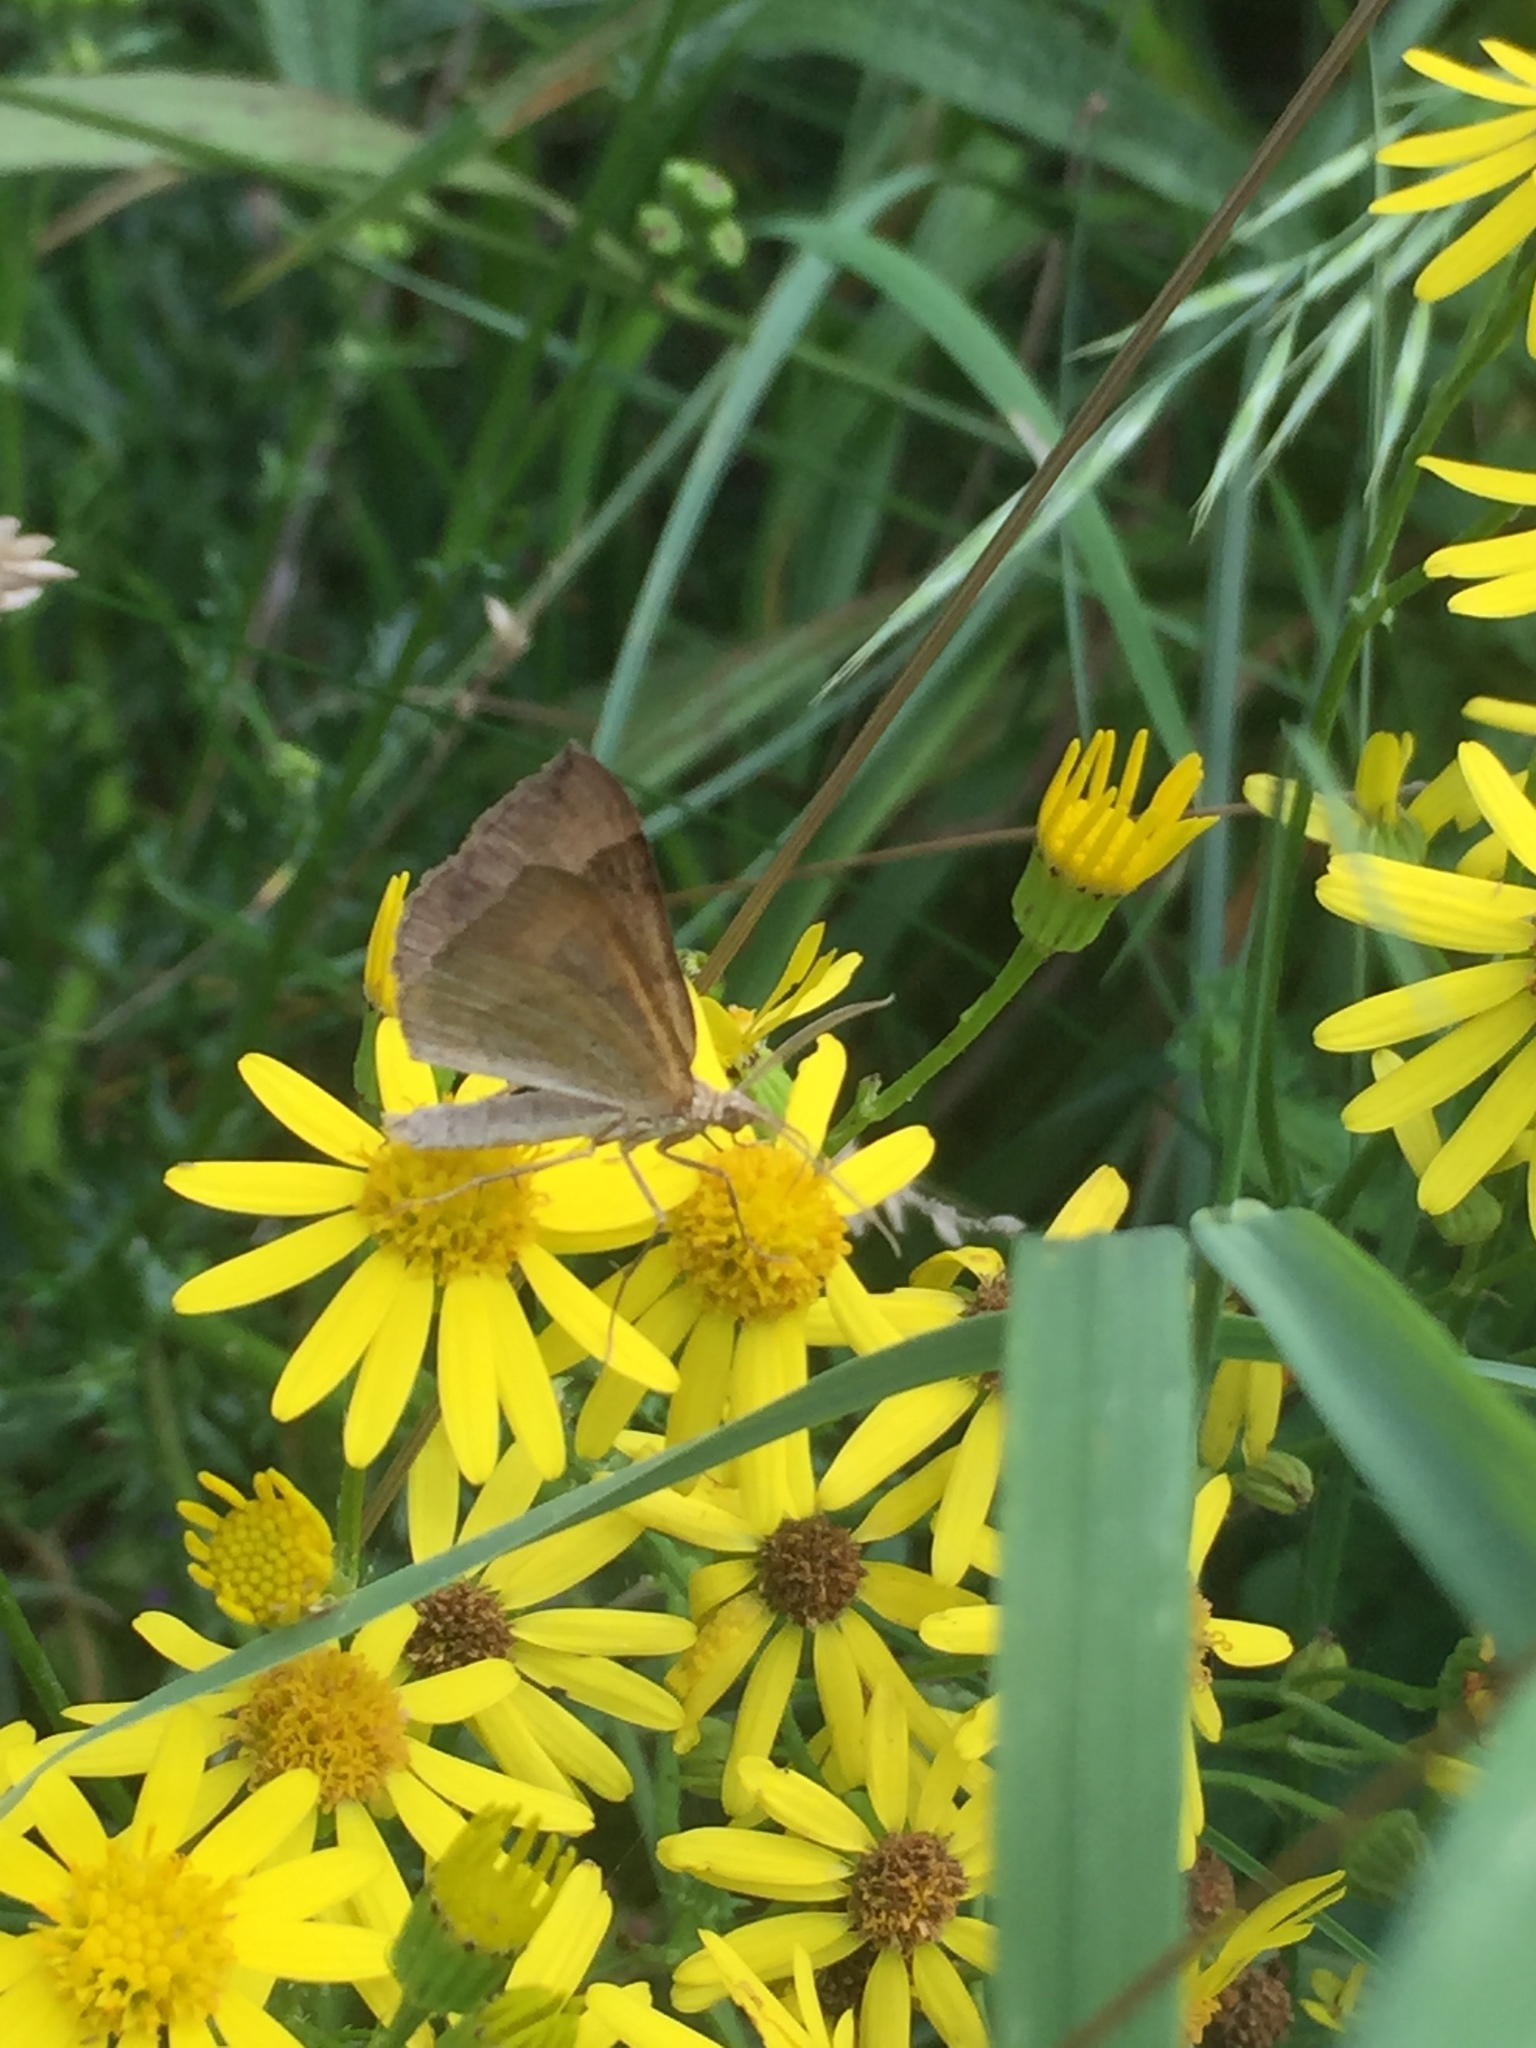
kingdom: Animalia
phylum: Arthropoda
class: Insecta
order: Lepidoptera
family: Geometridae
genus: Scotopteryx
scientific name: Scotopteryx chenopodiata
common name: Shaded broad-bar
